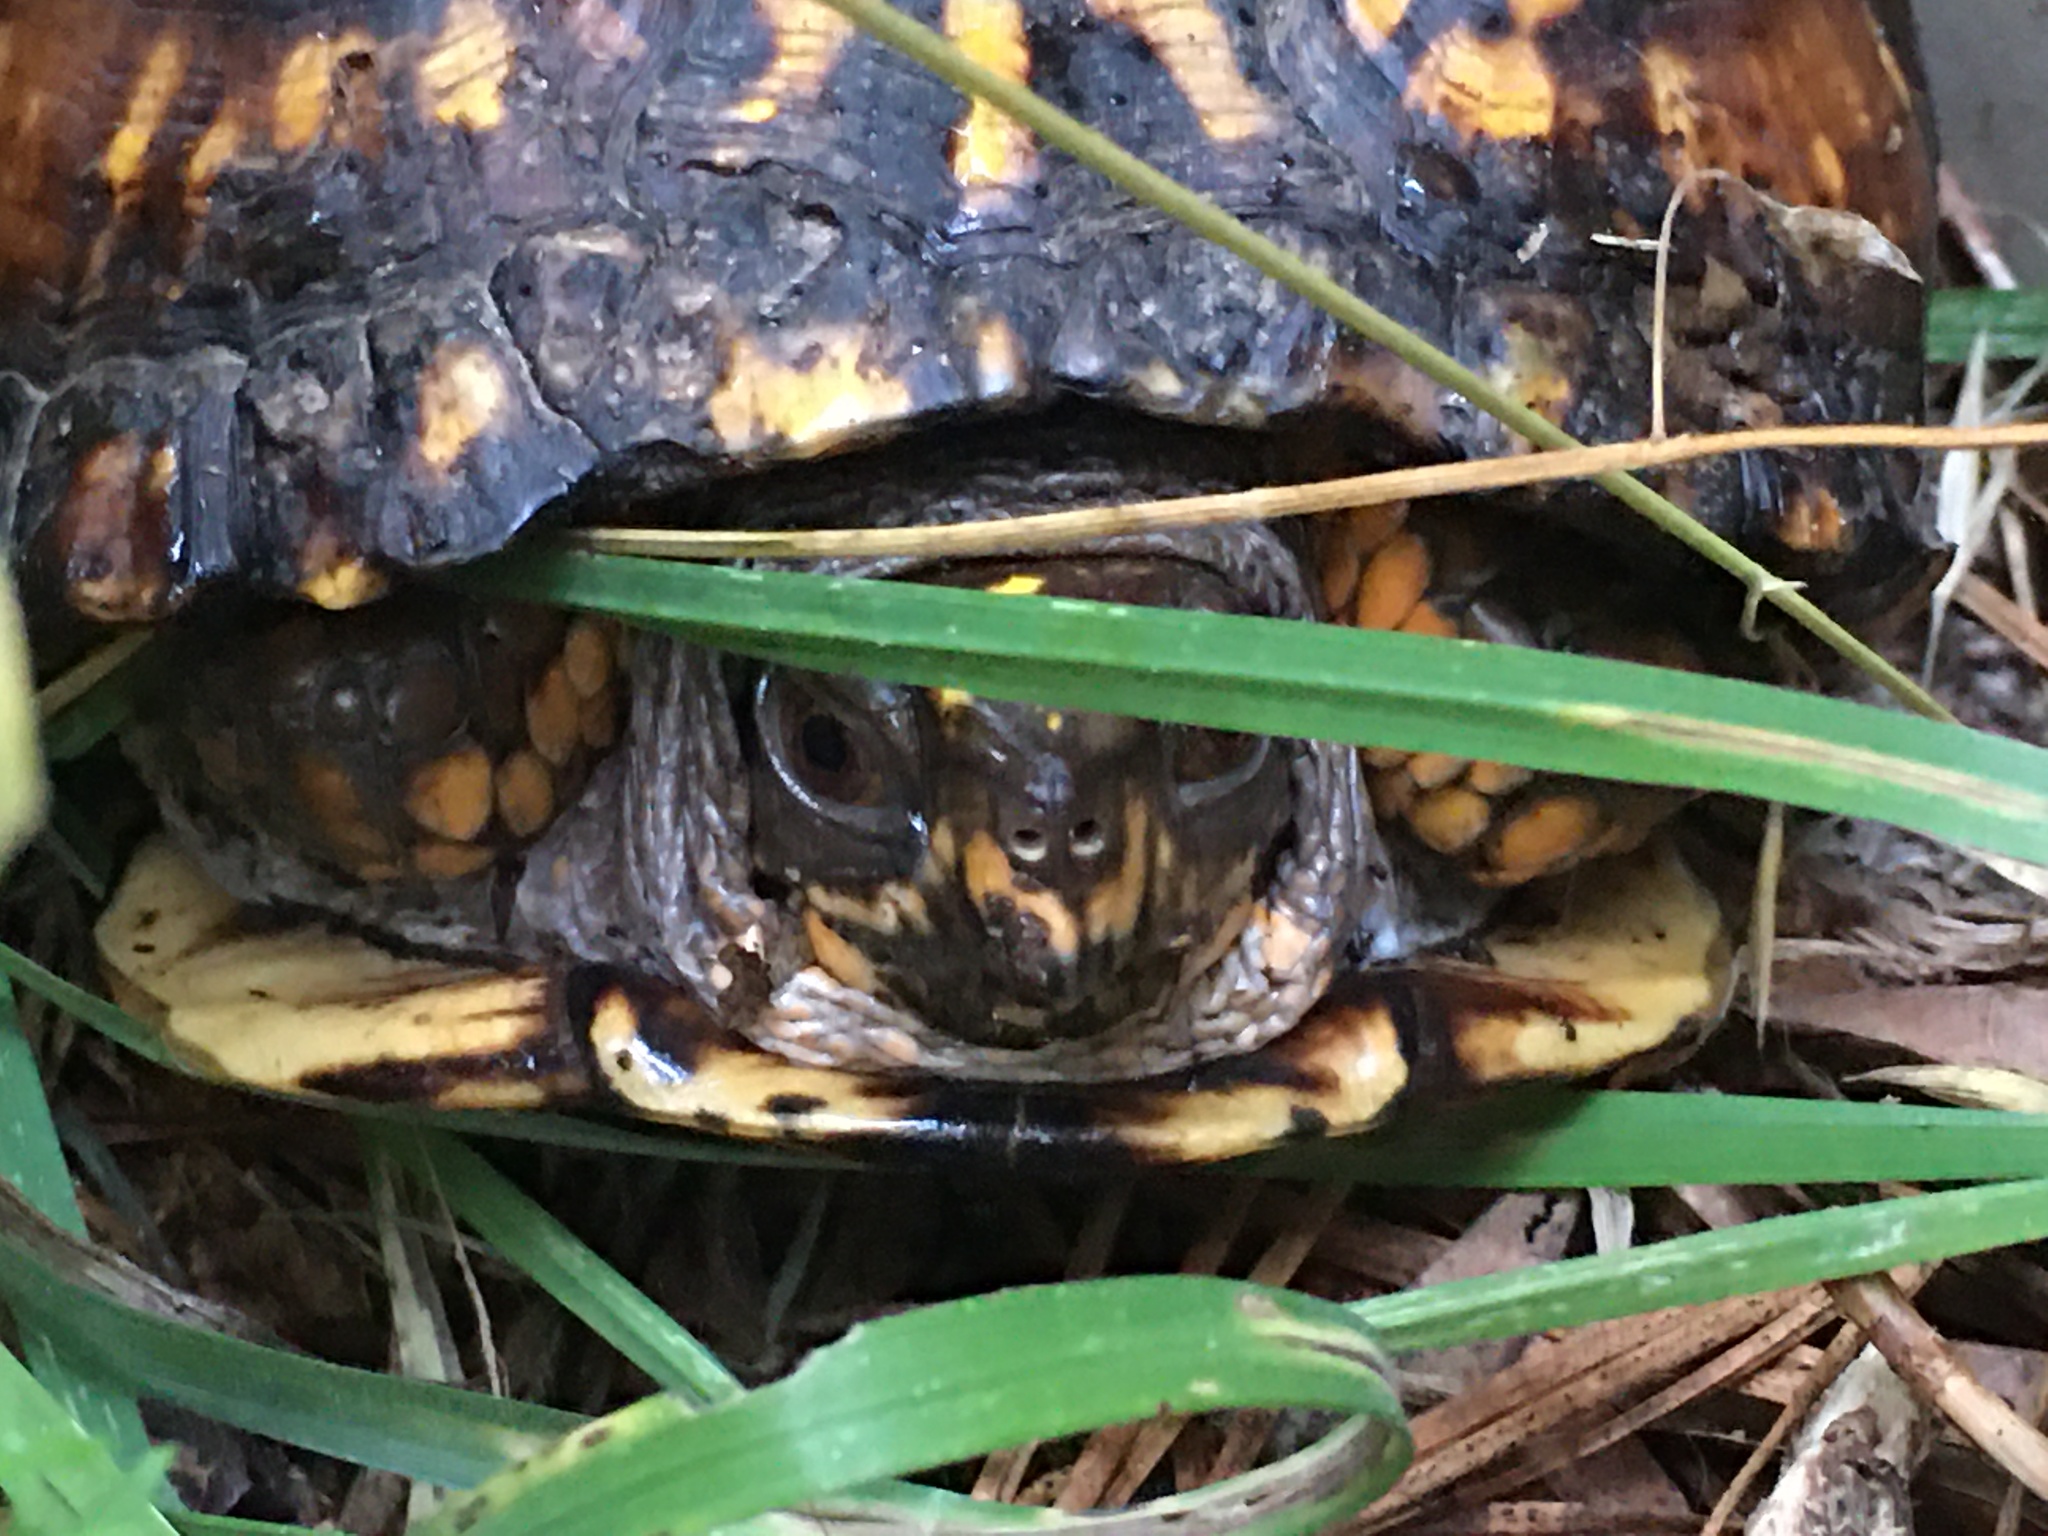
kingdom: Animalia
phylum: Chordata
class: Testudines
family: Emydidae
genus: Terrapene
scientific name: Terrapene carolina
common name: Common box turtle
